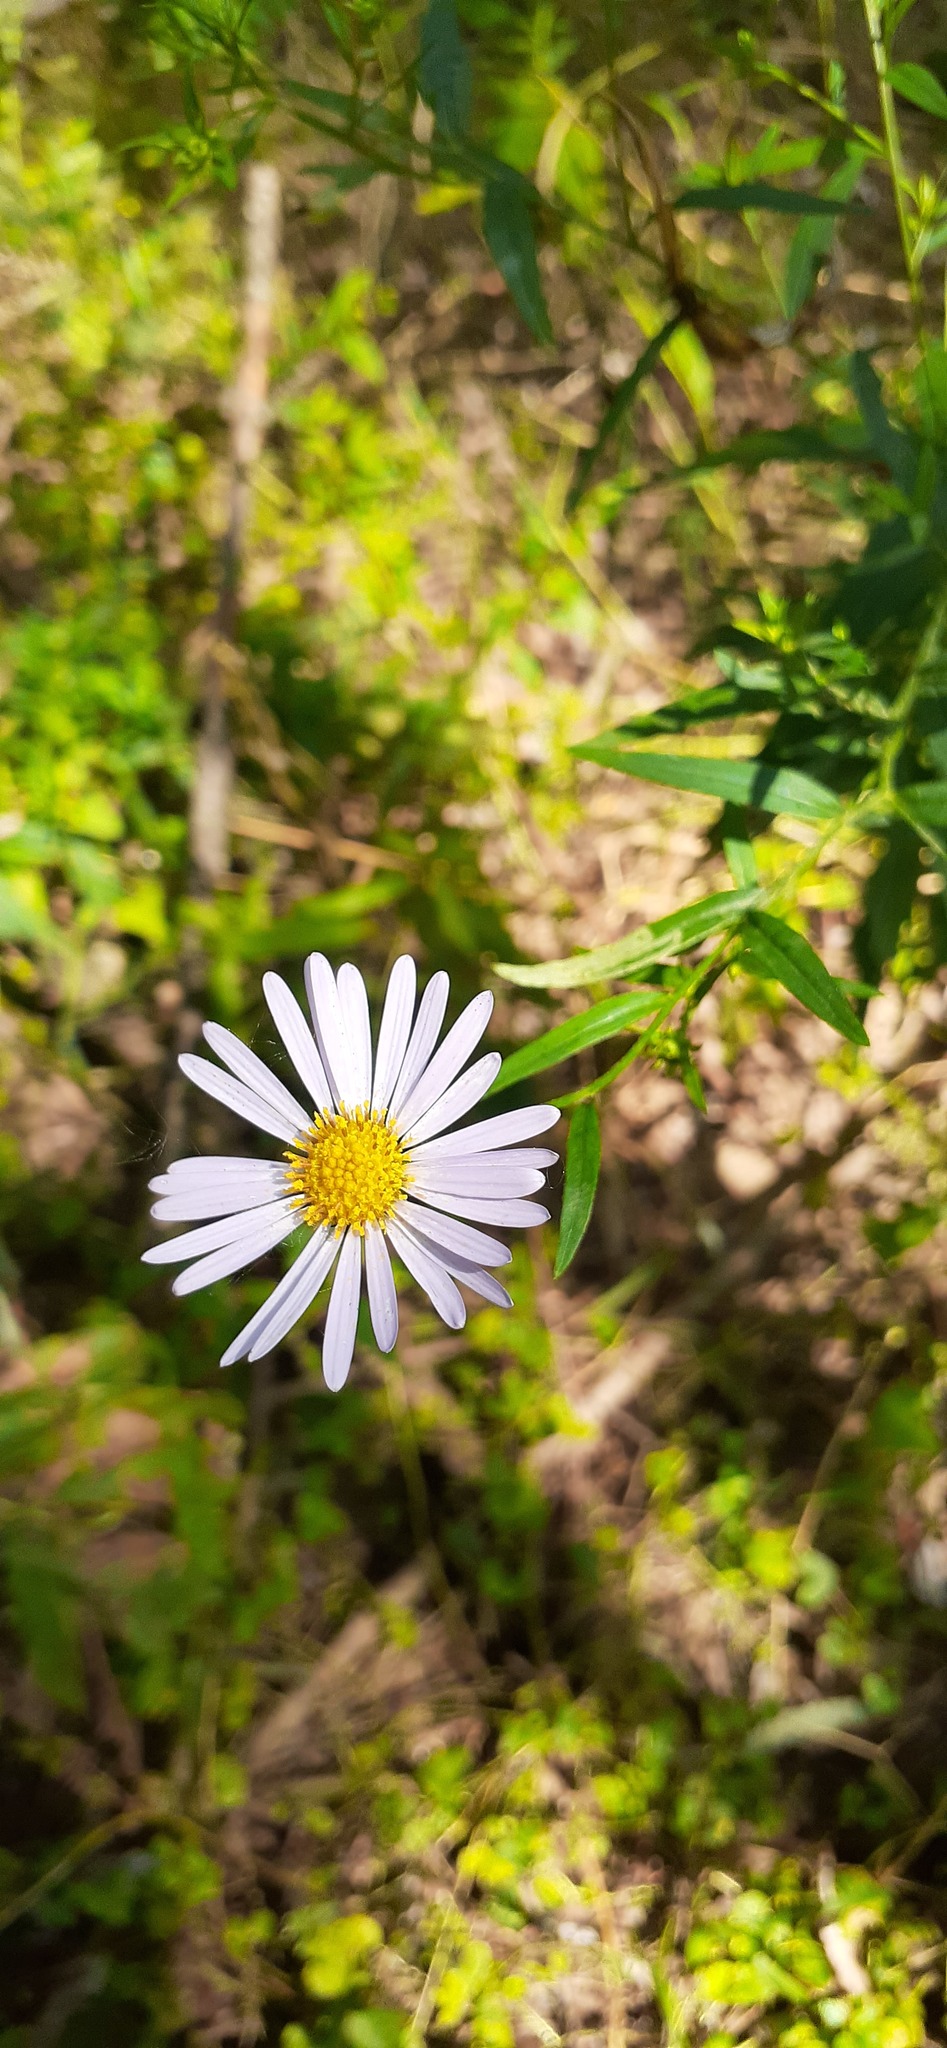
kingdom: Plantae
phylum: Tracheophyta
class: Magnoliopsida
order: Asterales
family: Asteraceae
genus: Kalimeris
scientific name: Kalimeris incisa
